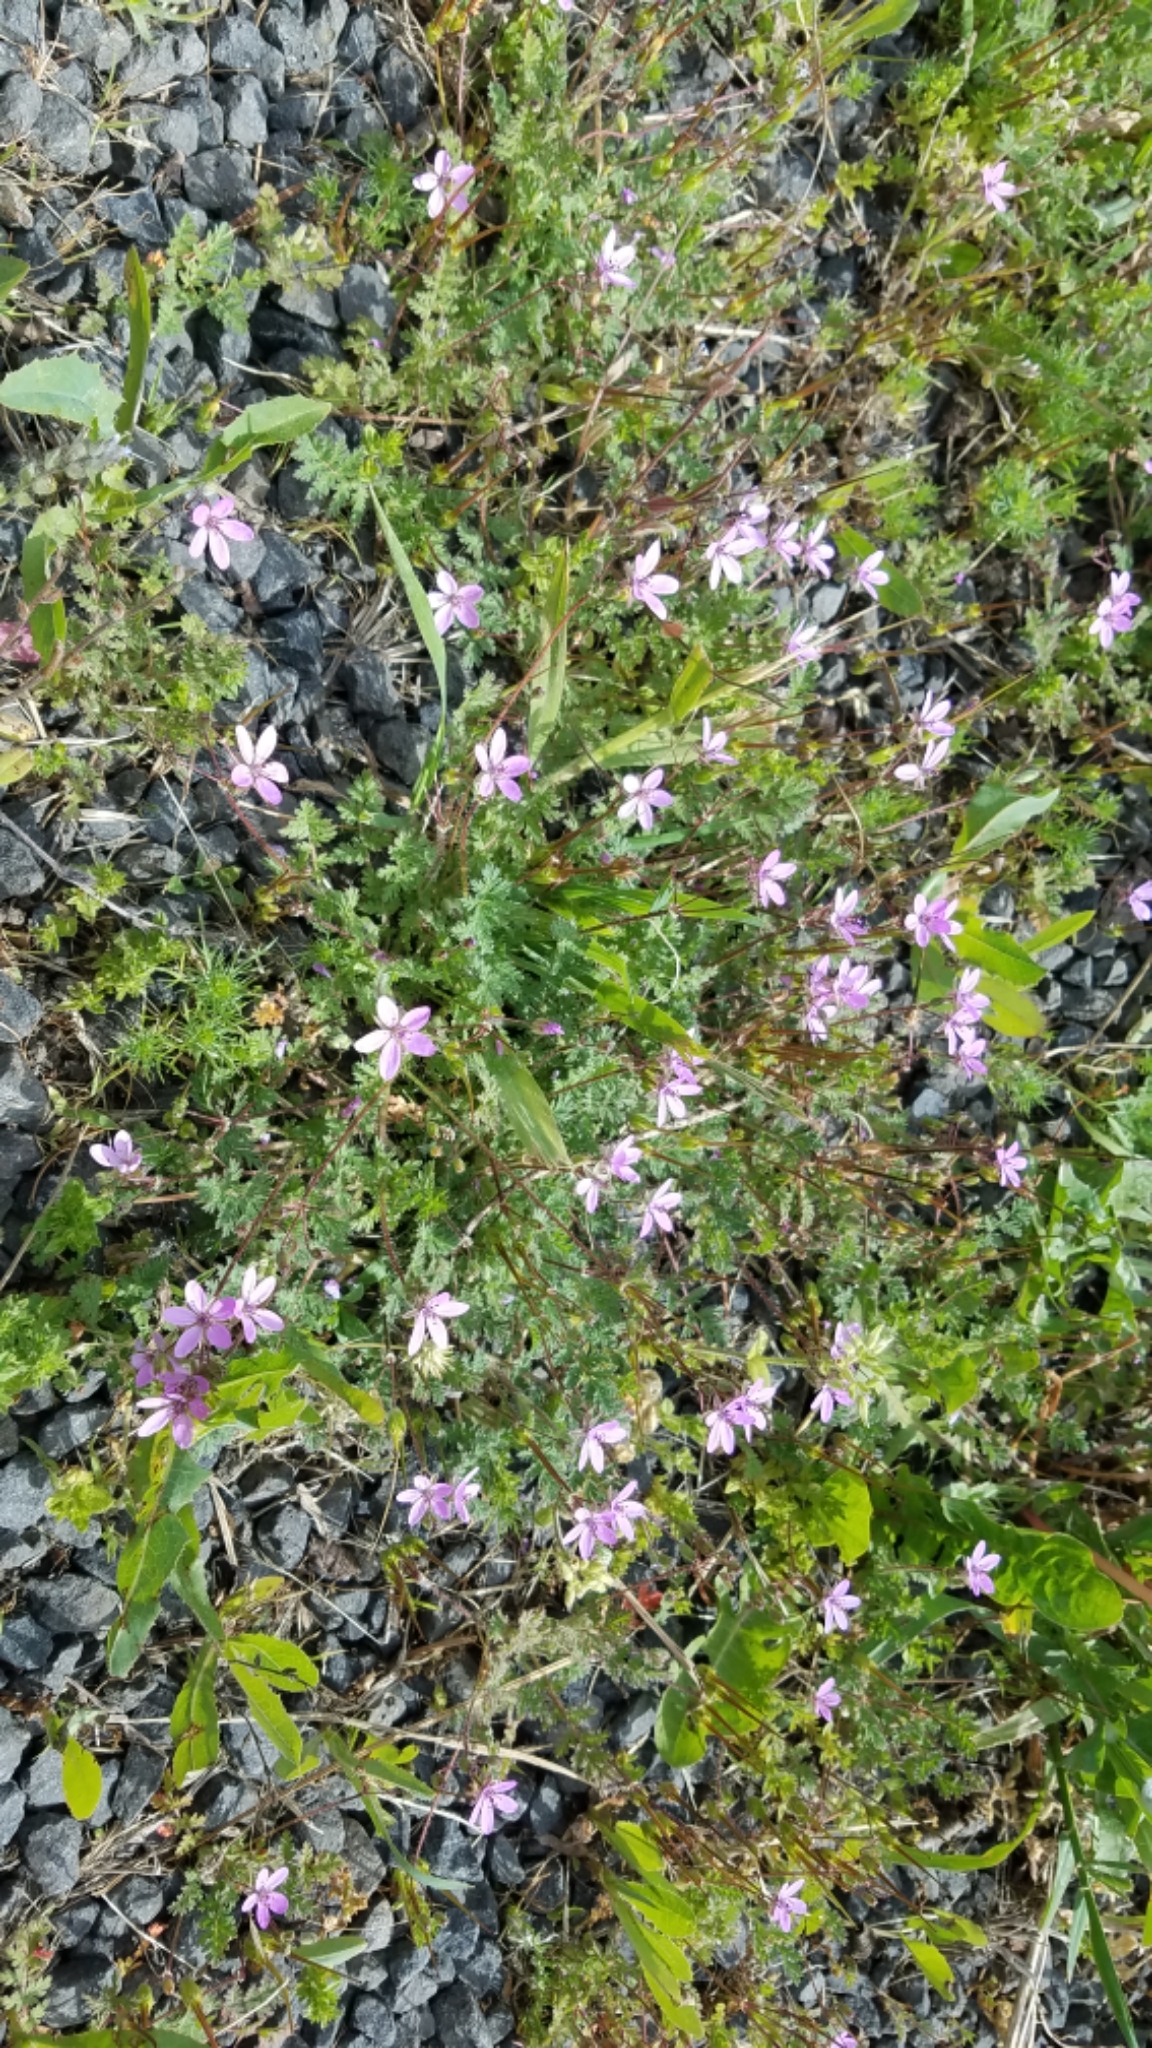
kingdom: Plantae
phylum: Tracheophyta
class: Magnoliopsida
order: Geraniales
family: Geraniaceae
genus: Erodium
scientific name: Erodium cicutarium
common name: Common stork's-bill
